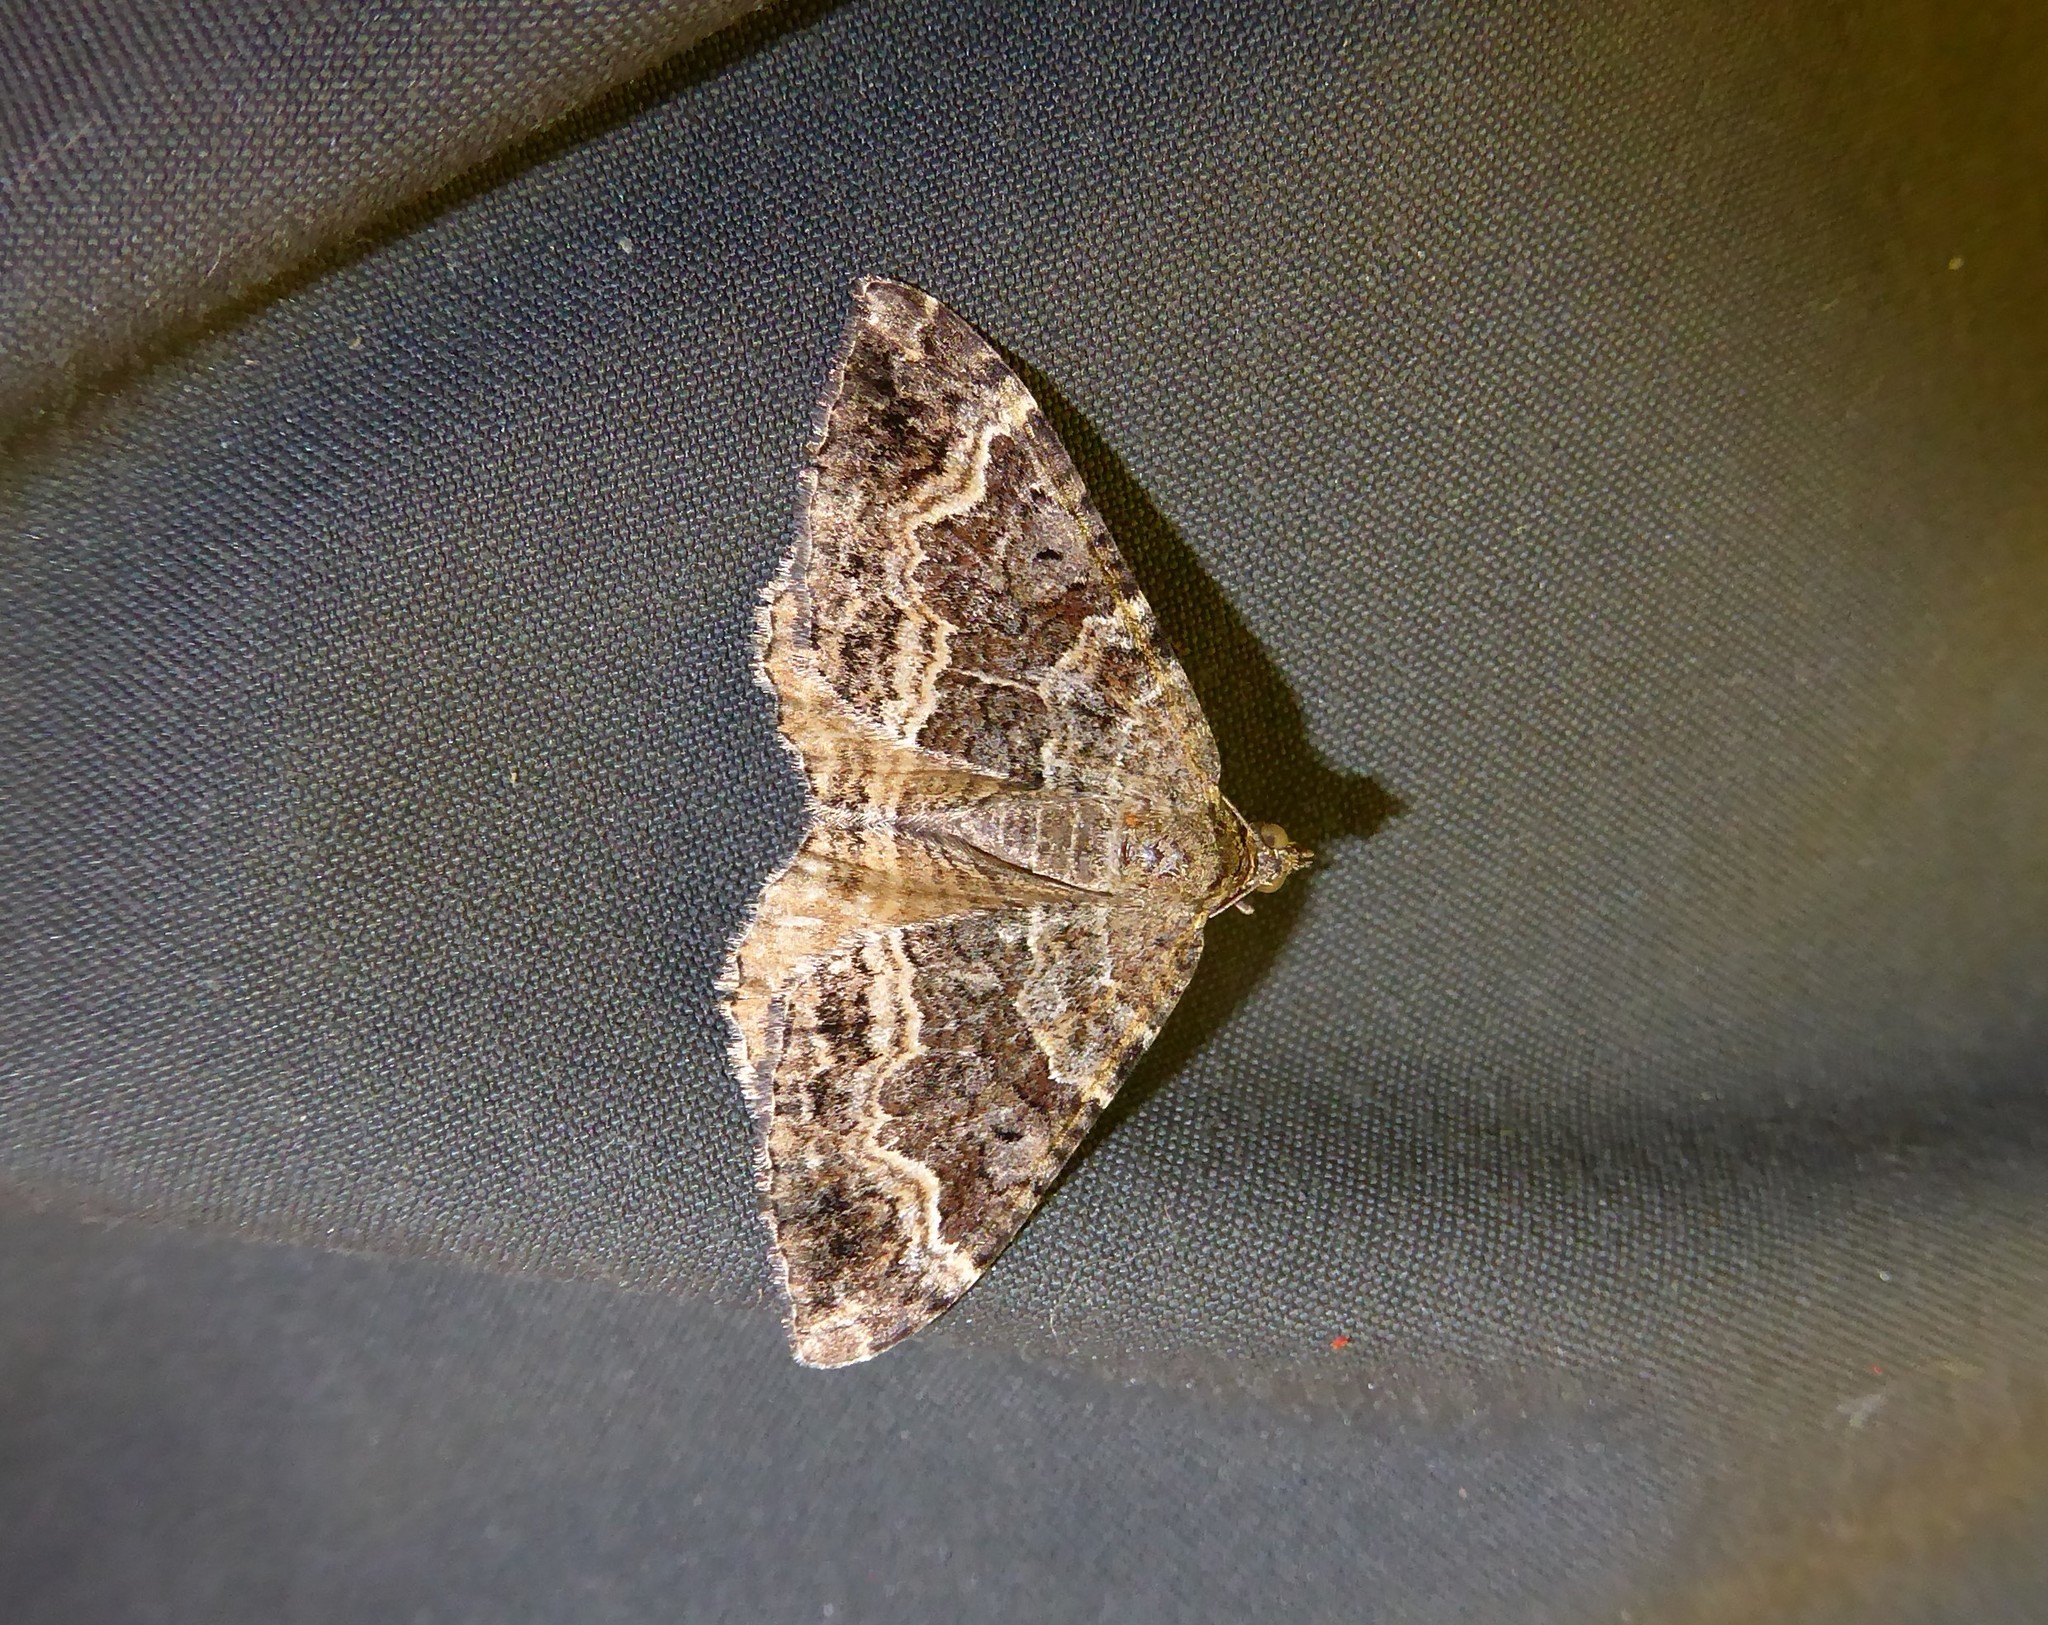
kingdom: Animalia
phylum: Arthropoda
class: Insecta
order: Lepidoptera
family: Geometridae
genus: Hydriomena
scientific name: Hydriomena deltoidata
